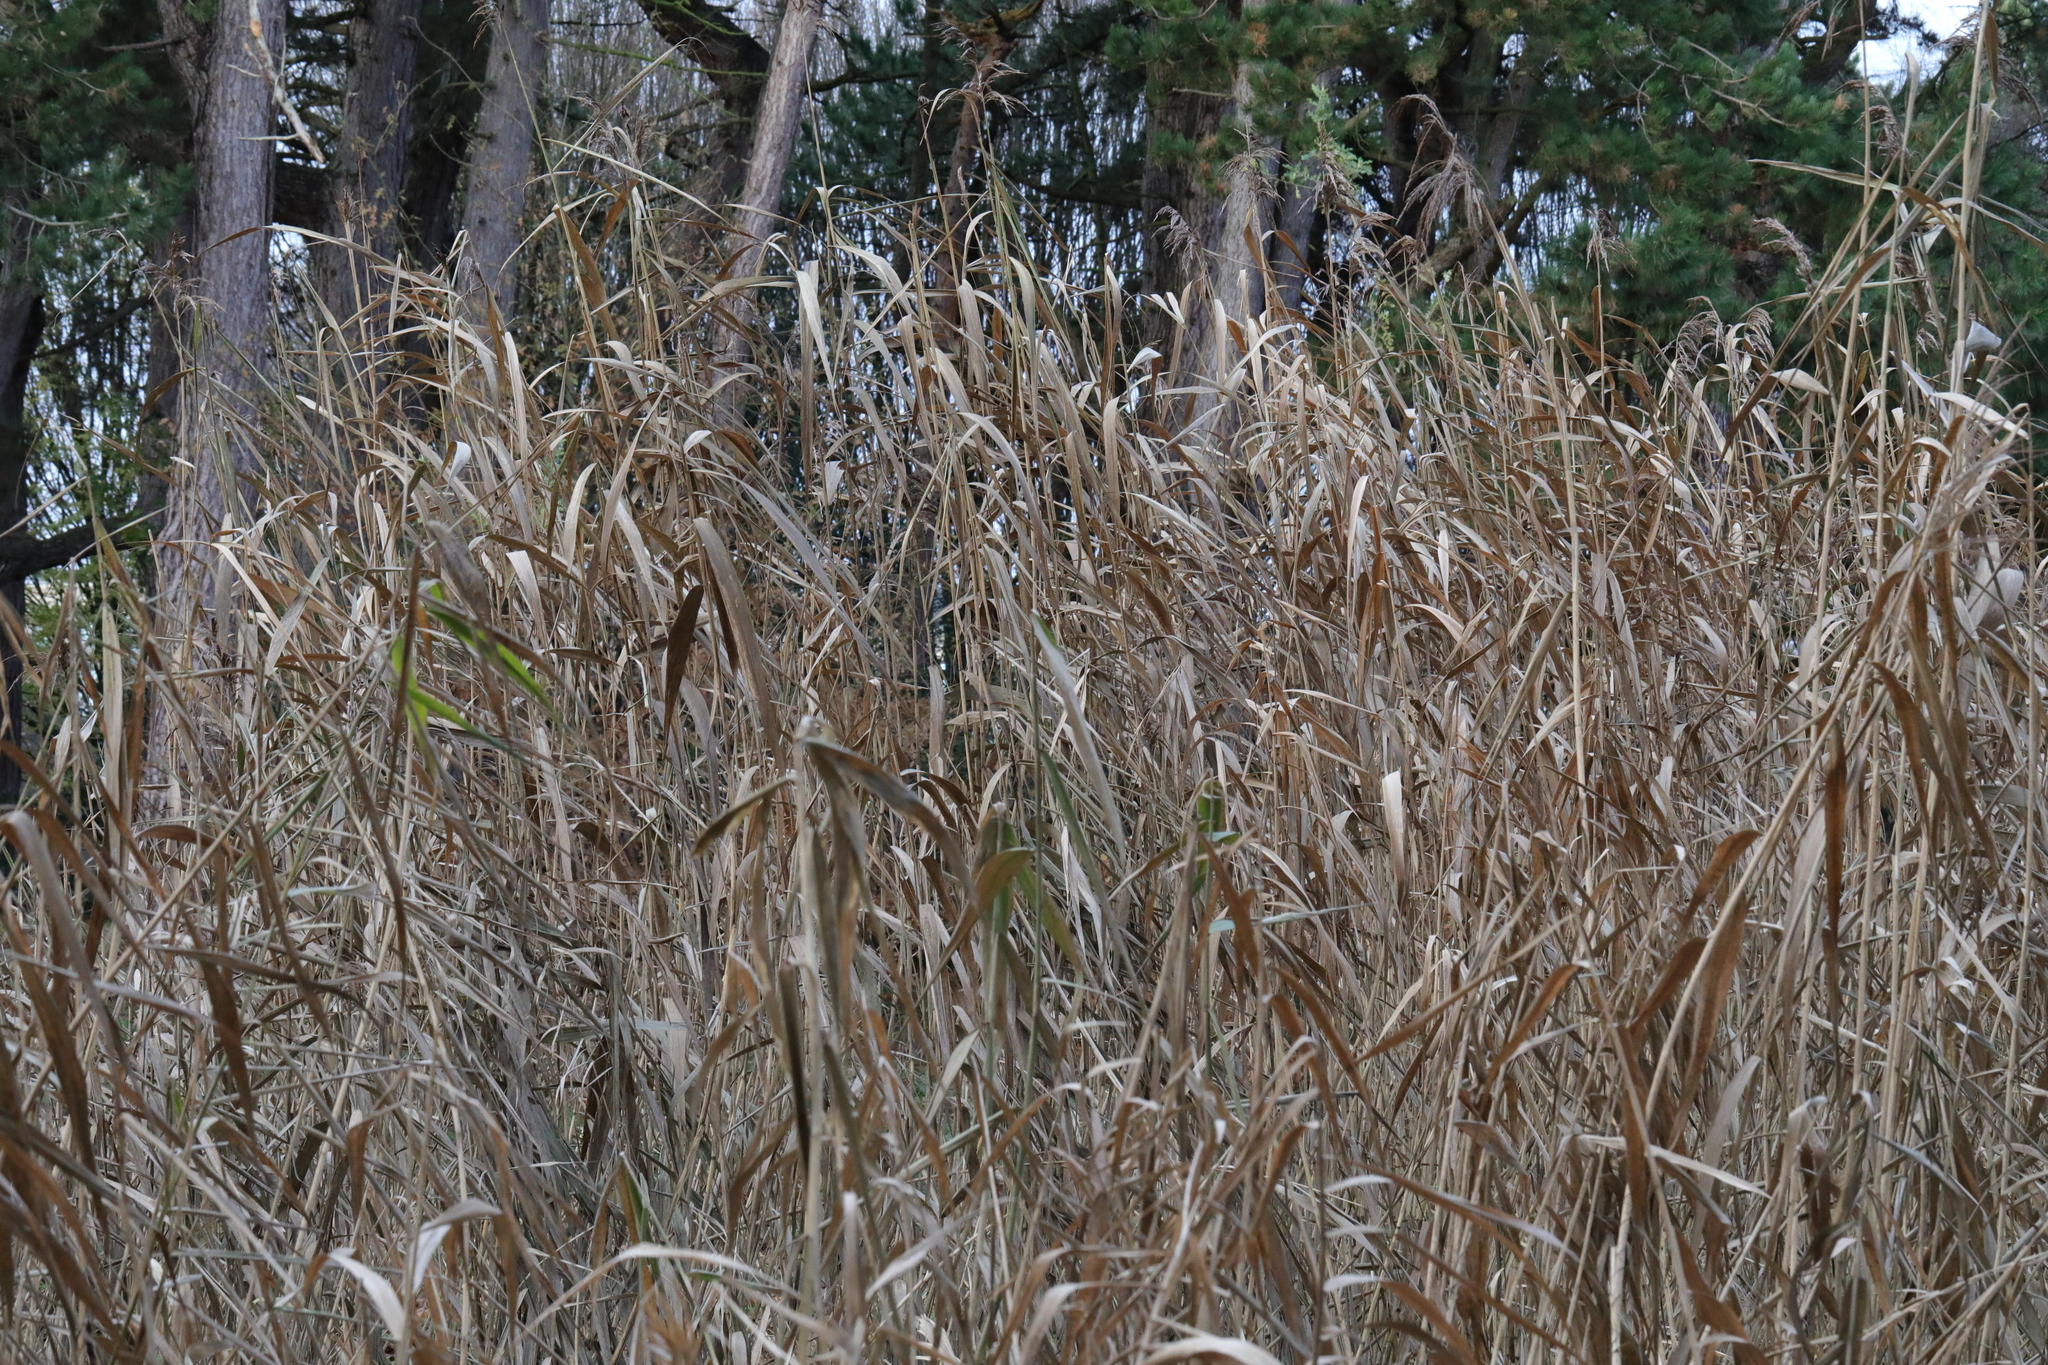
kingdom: Plantae
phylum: Tracheophyta
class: Liliopsida
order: Poales
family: Poaceae
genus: Phragmites
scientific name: Phragmites australis
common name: Common reed
